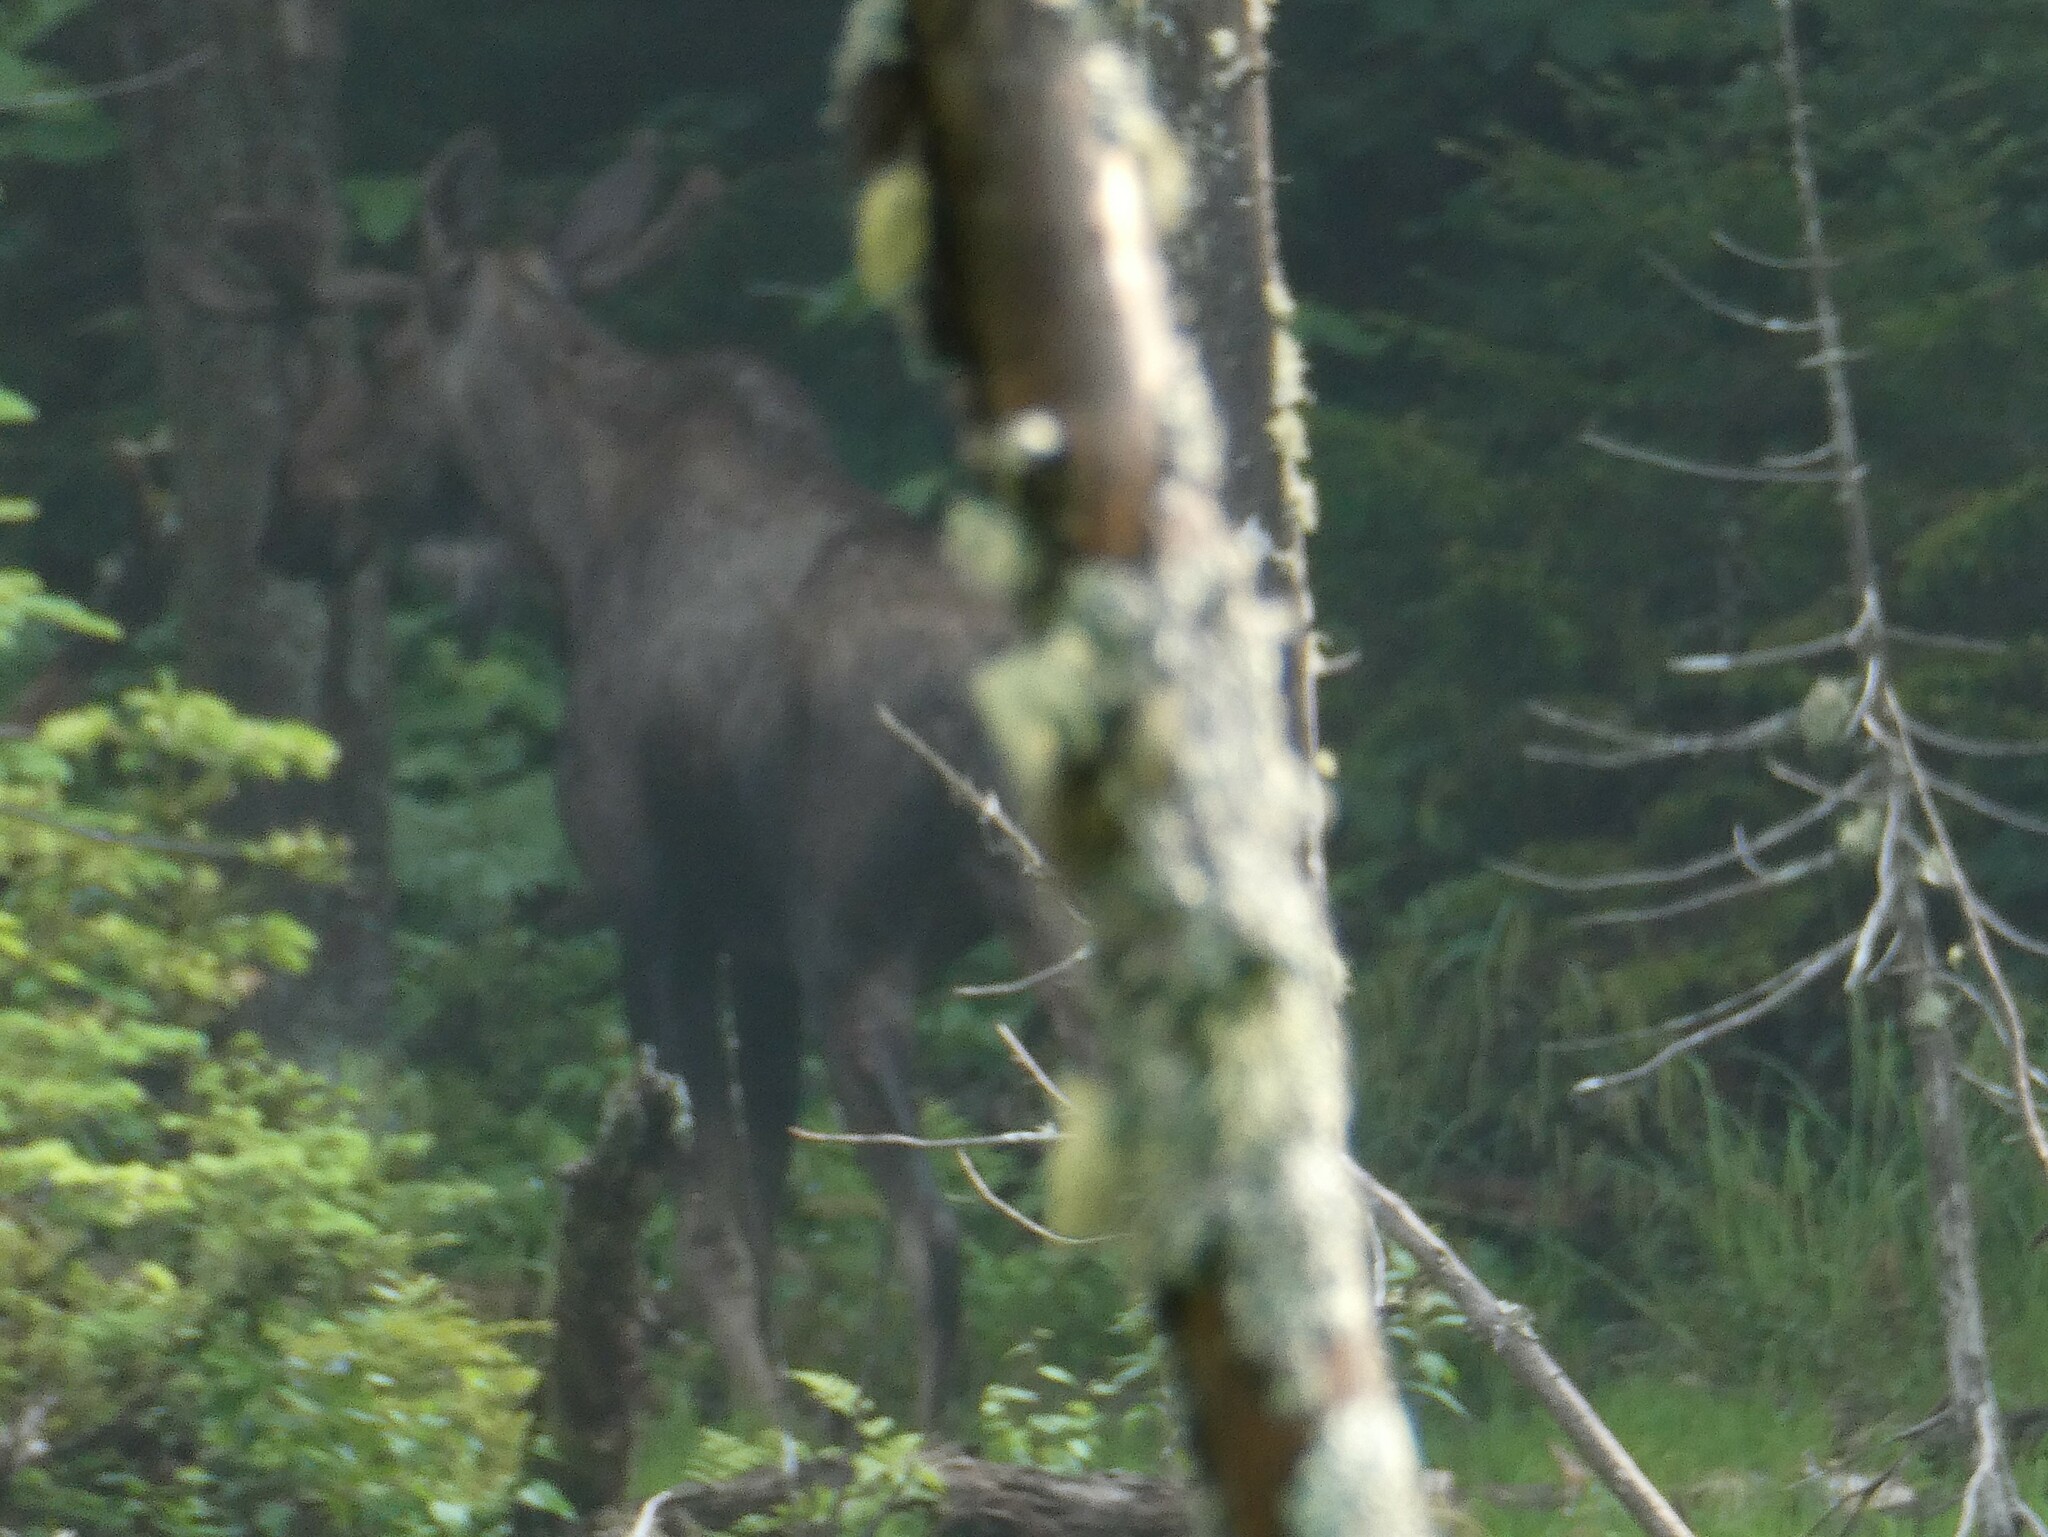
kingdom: Animalia
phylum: Chordata
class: Mammalia
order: Artiodactyla
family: Cervidae
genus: Alces
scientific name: Alces alces
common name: Moose
